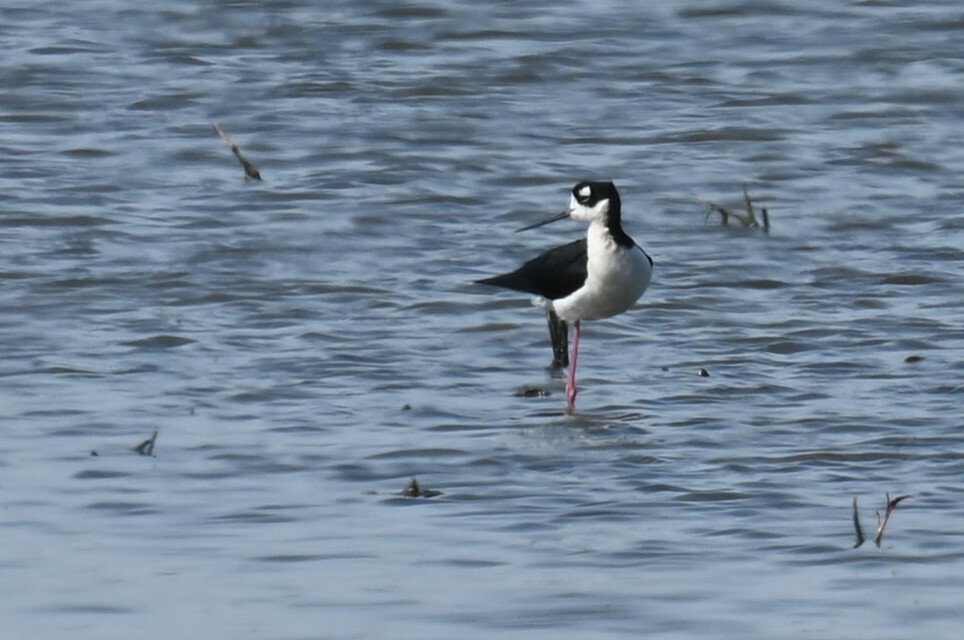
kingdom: Animalia
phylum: Chordata
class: Aves
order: Charadriiformes
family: Recurvirostridae
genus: Himantopus
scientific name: Himantopus mexicanus
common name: Black-necked stilt
